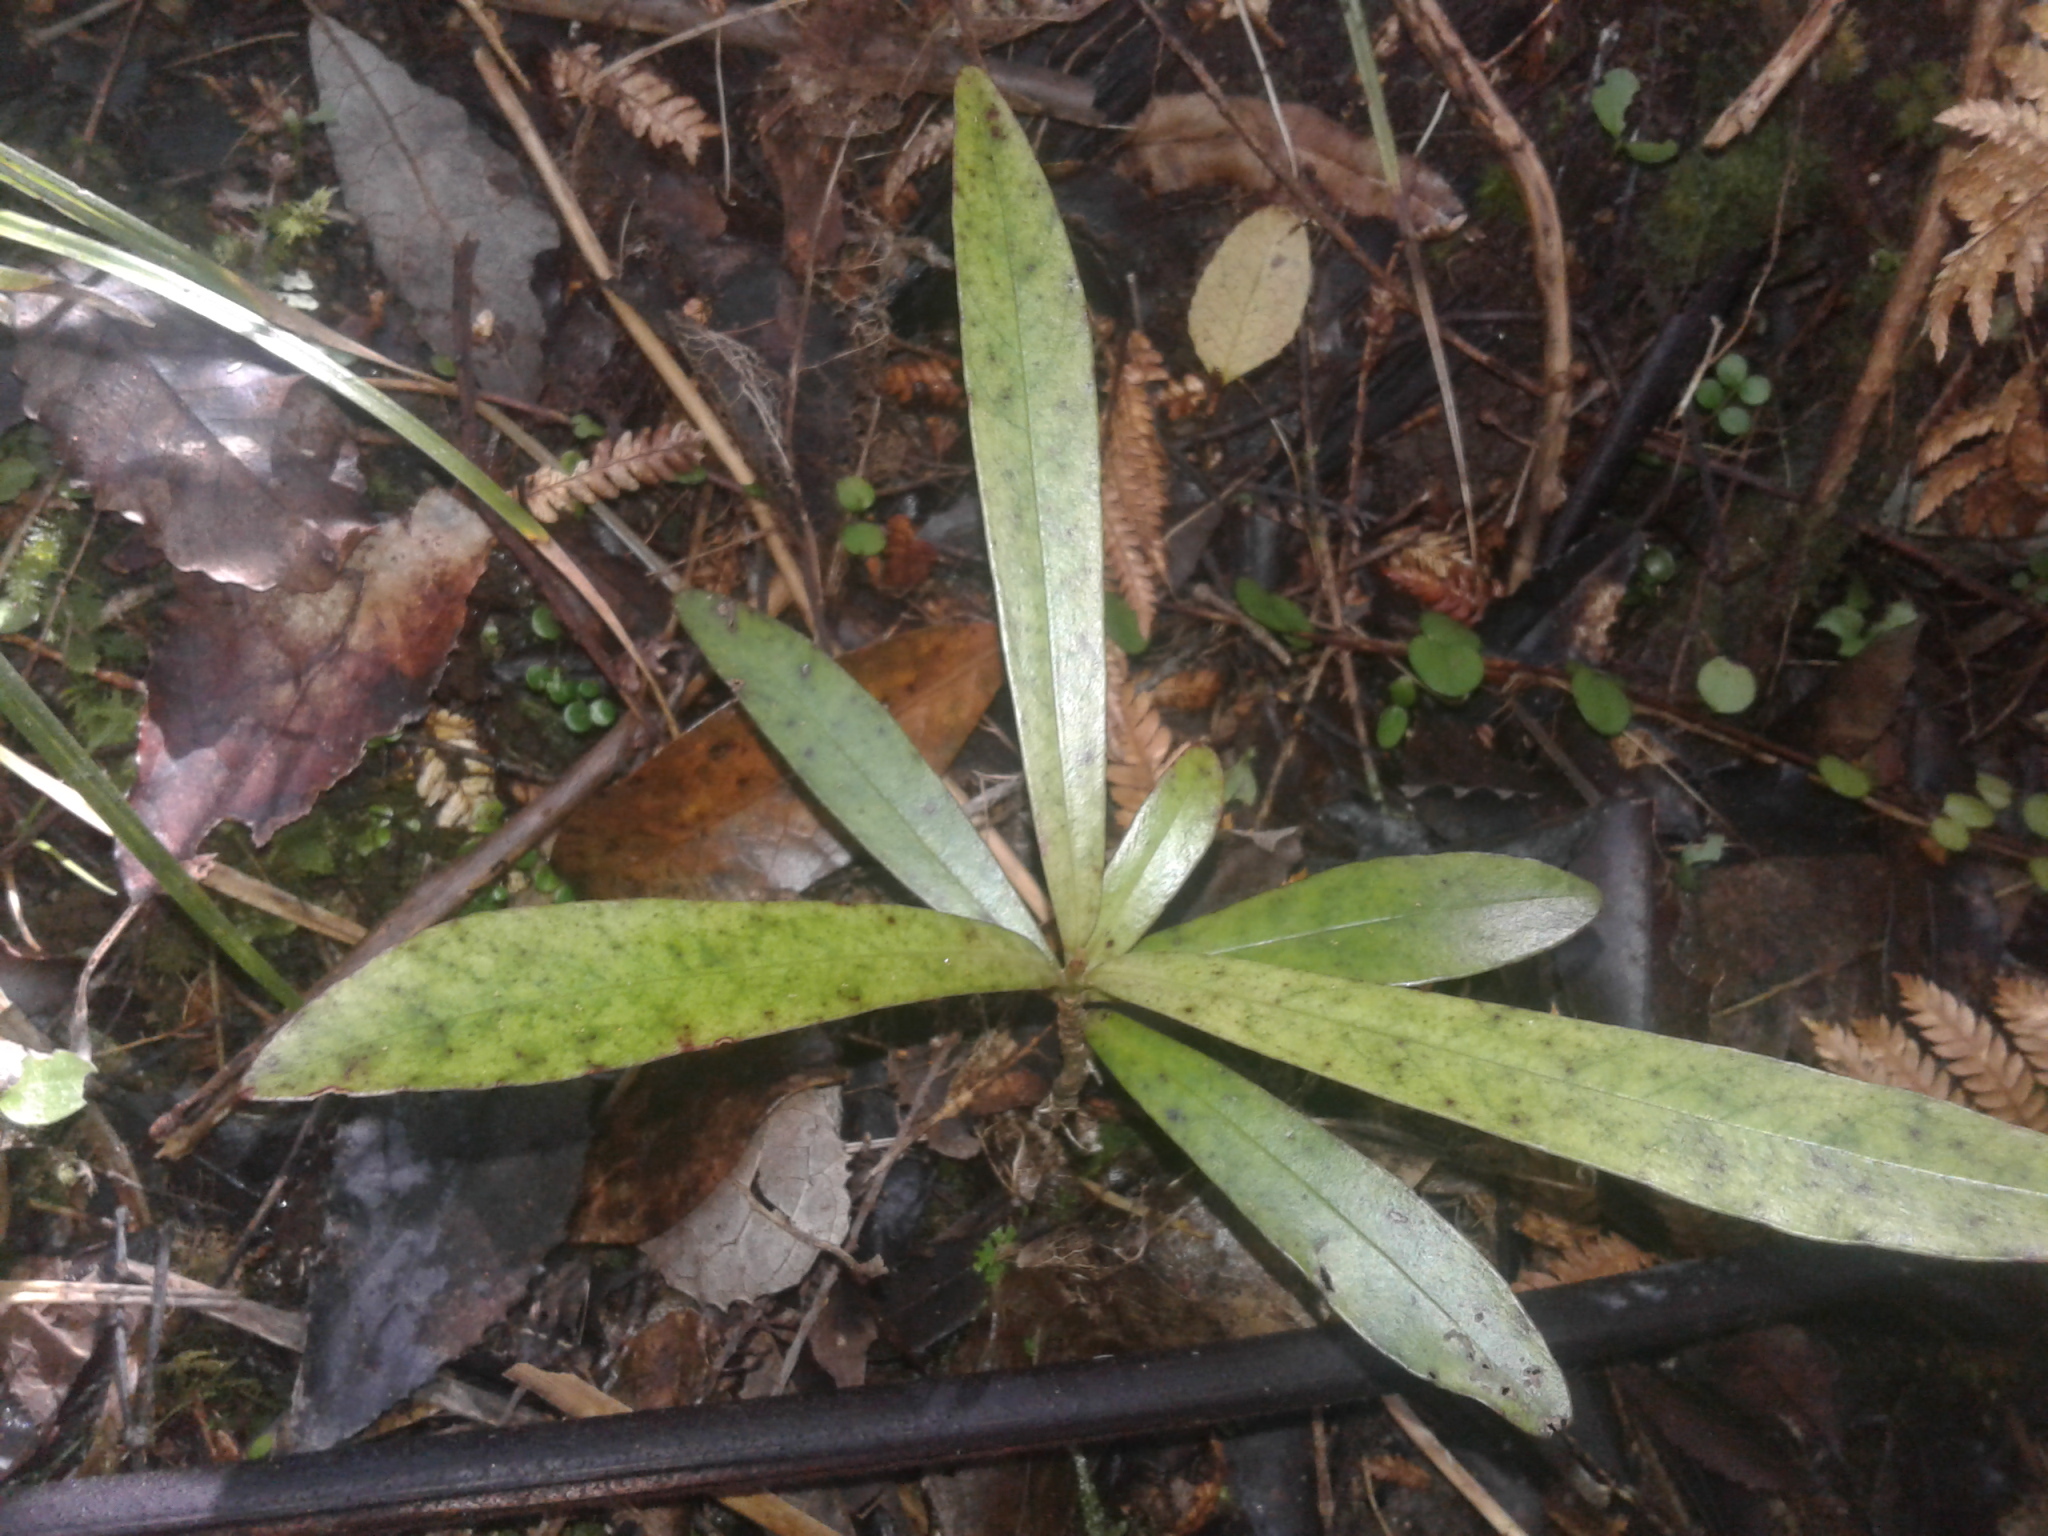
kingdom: Plantae
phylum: Tracheophyta
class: Magnoliopsida
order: Ericales
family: Primulaceae
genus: Myrsine
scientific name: Myrsine salicina
